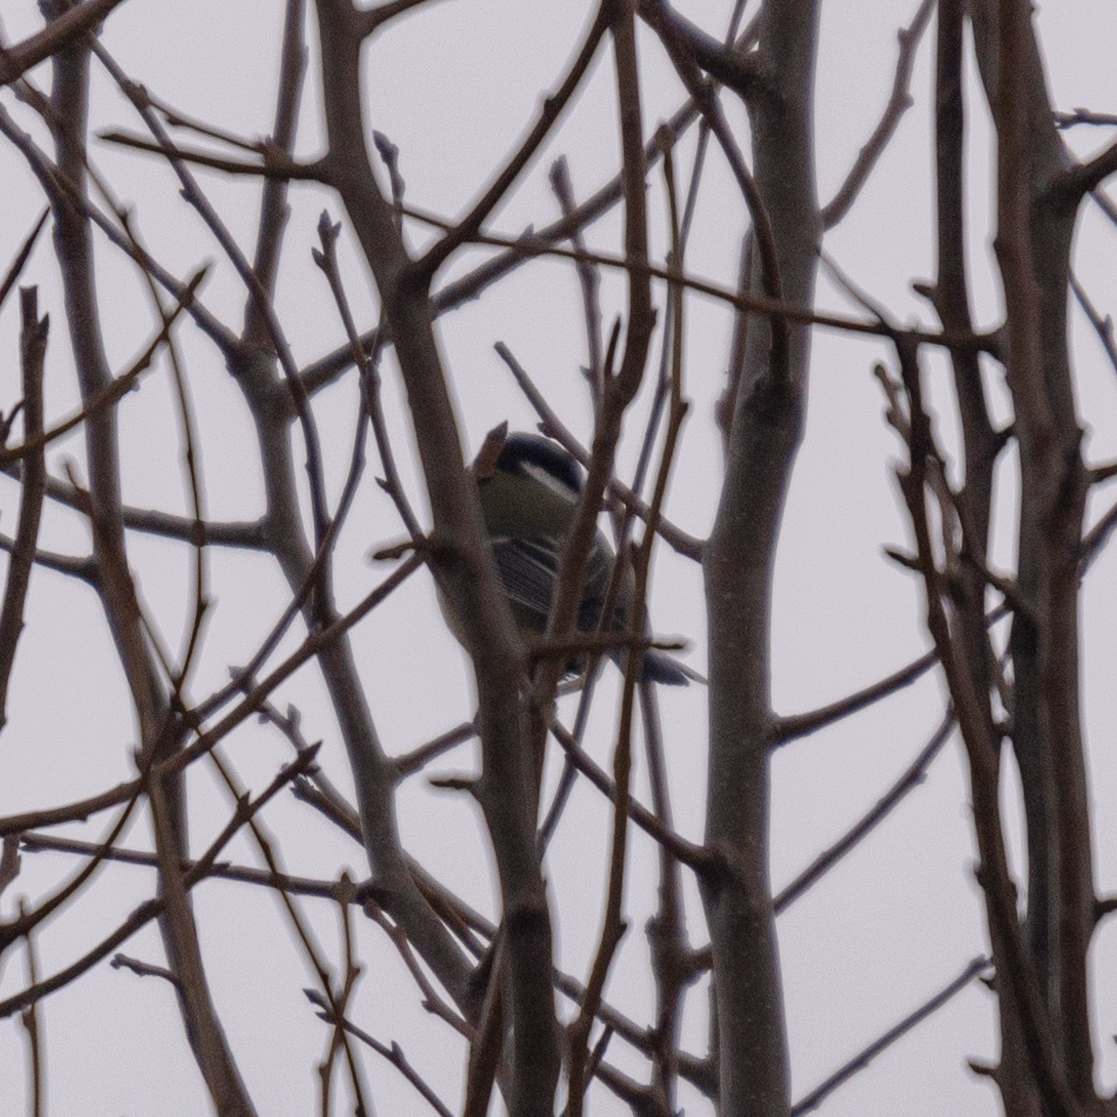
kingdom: Animalia
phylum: Chordata
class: Aves
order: Passeriformes
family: Paridae
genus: Parus
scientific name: Parus major
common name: Great tit
